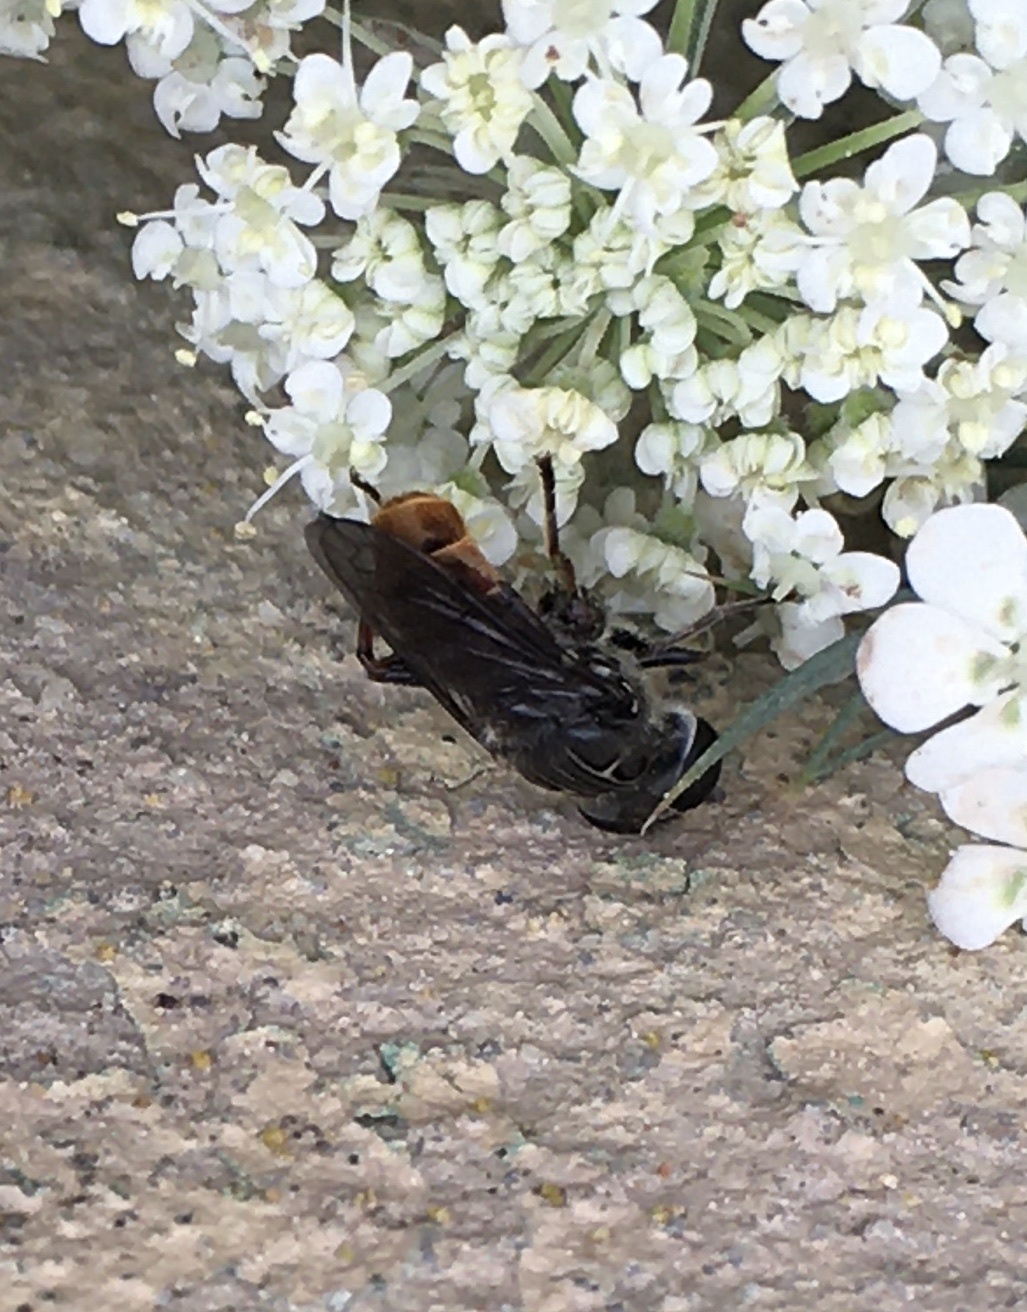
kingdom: Animalia
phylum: Arthropoda
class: Insecta
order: Diptera
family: Syrphidae
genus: Asemosyrphus
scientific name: Asemosyrphus
